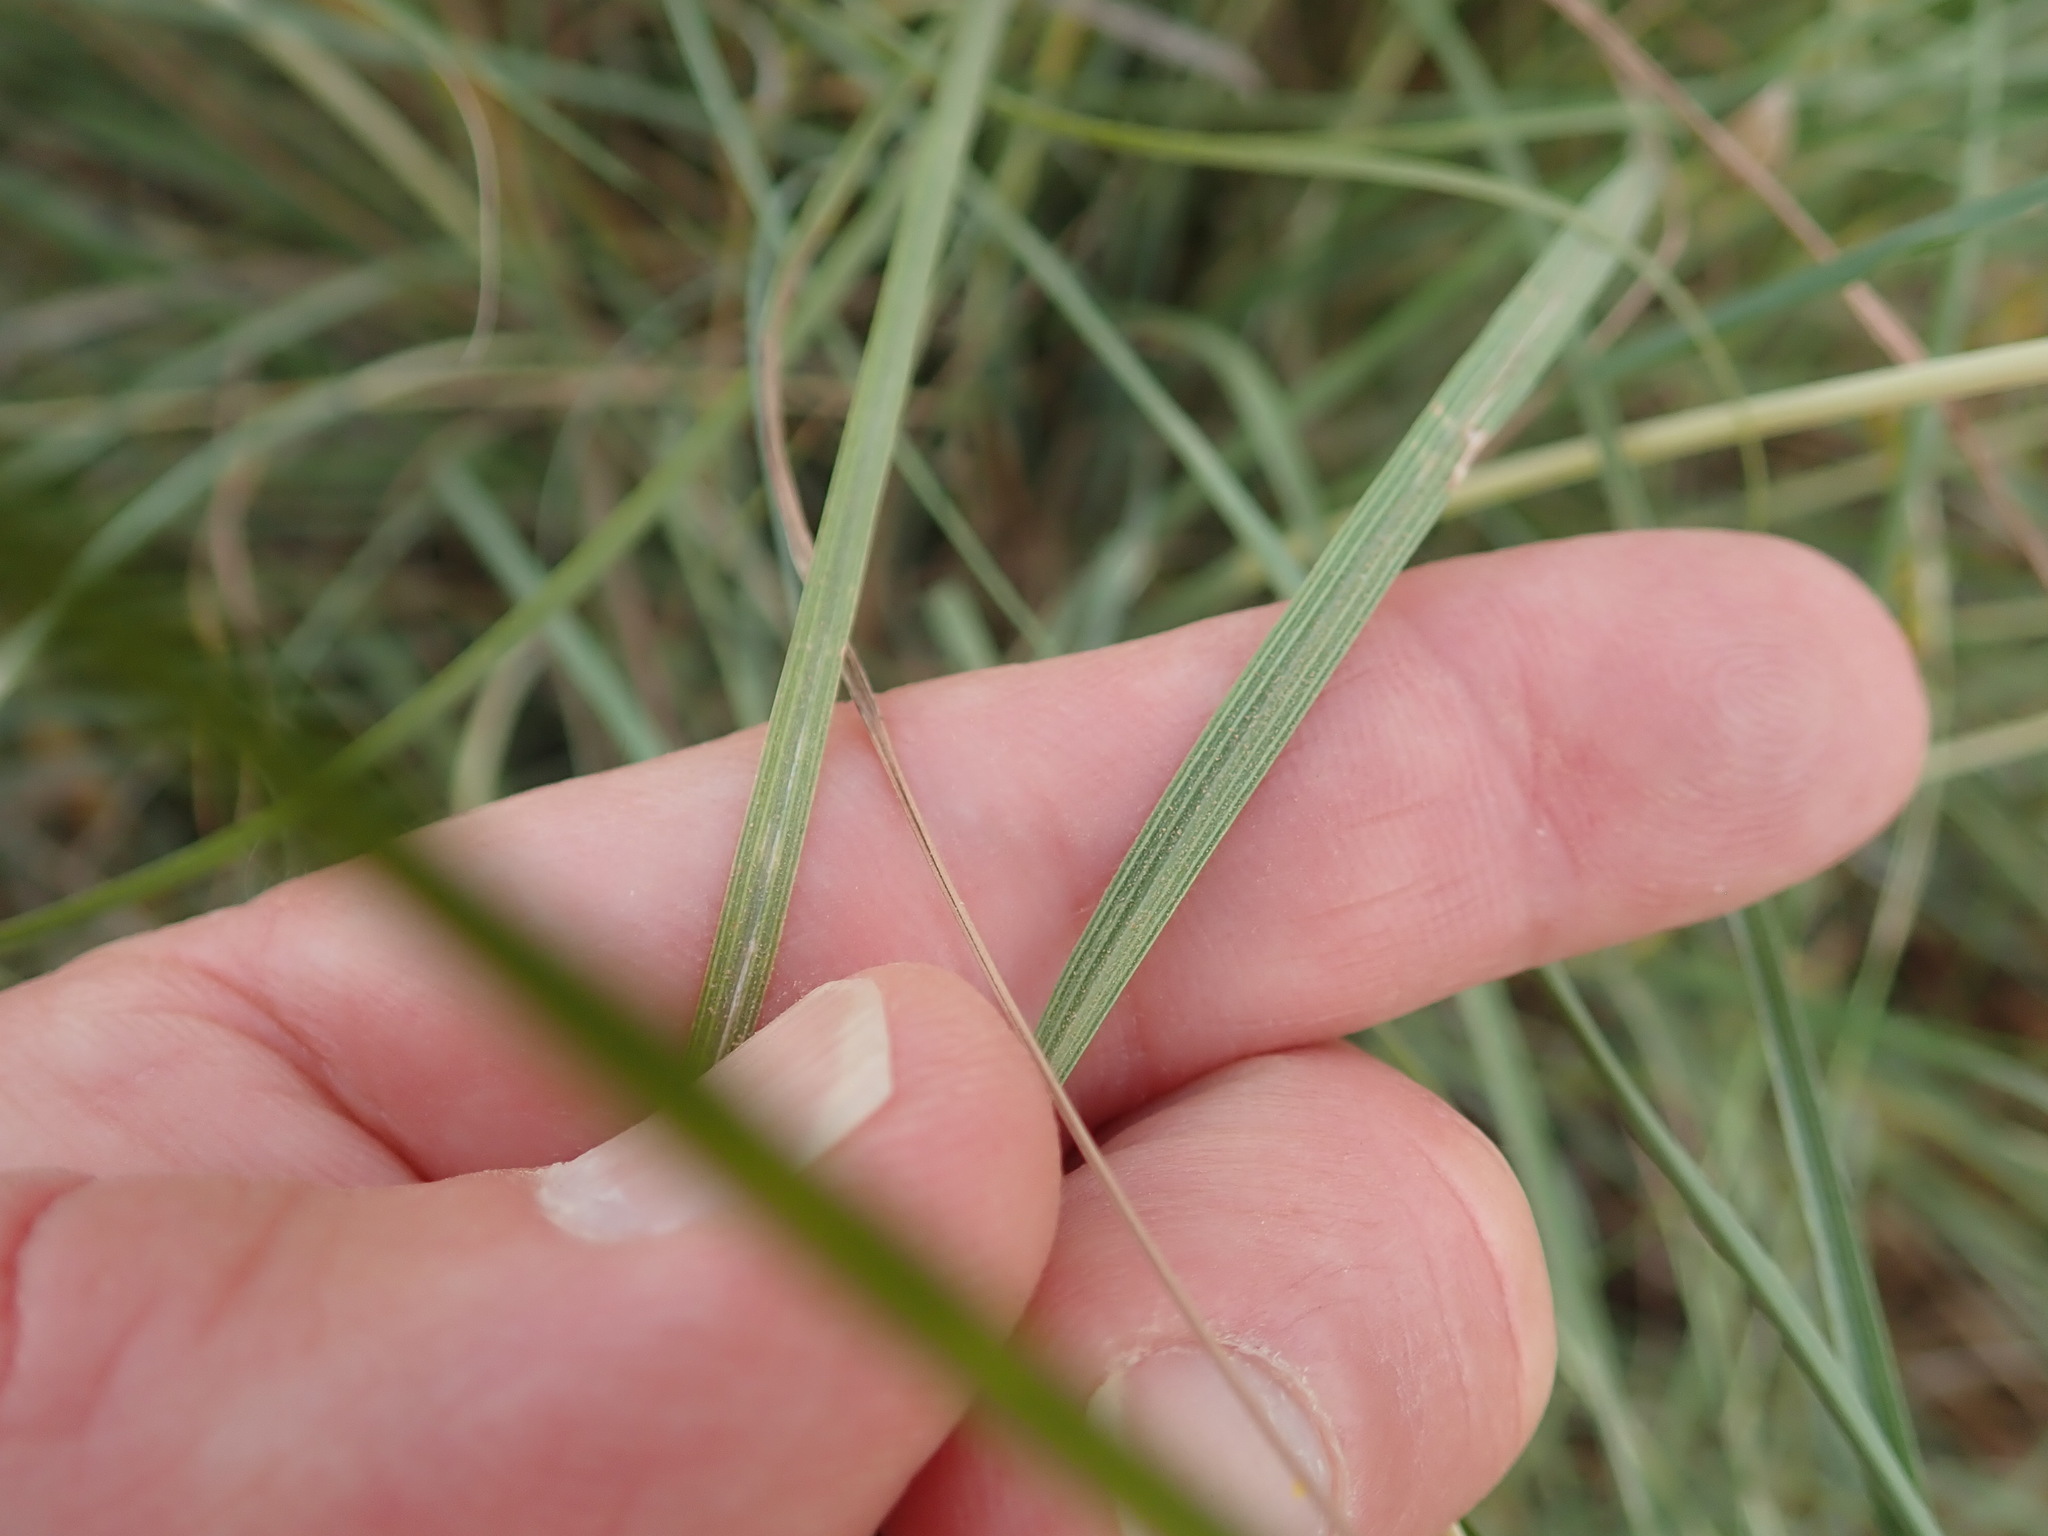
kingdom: Plantae
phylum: Tracheophyta
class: Liliopsida
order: Poales
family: Poaceae
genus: Hyparrhenia
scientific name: Hyparrhenia hirta
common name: Thatching grass
